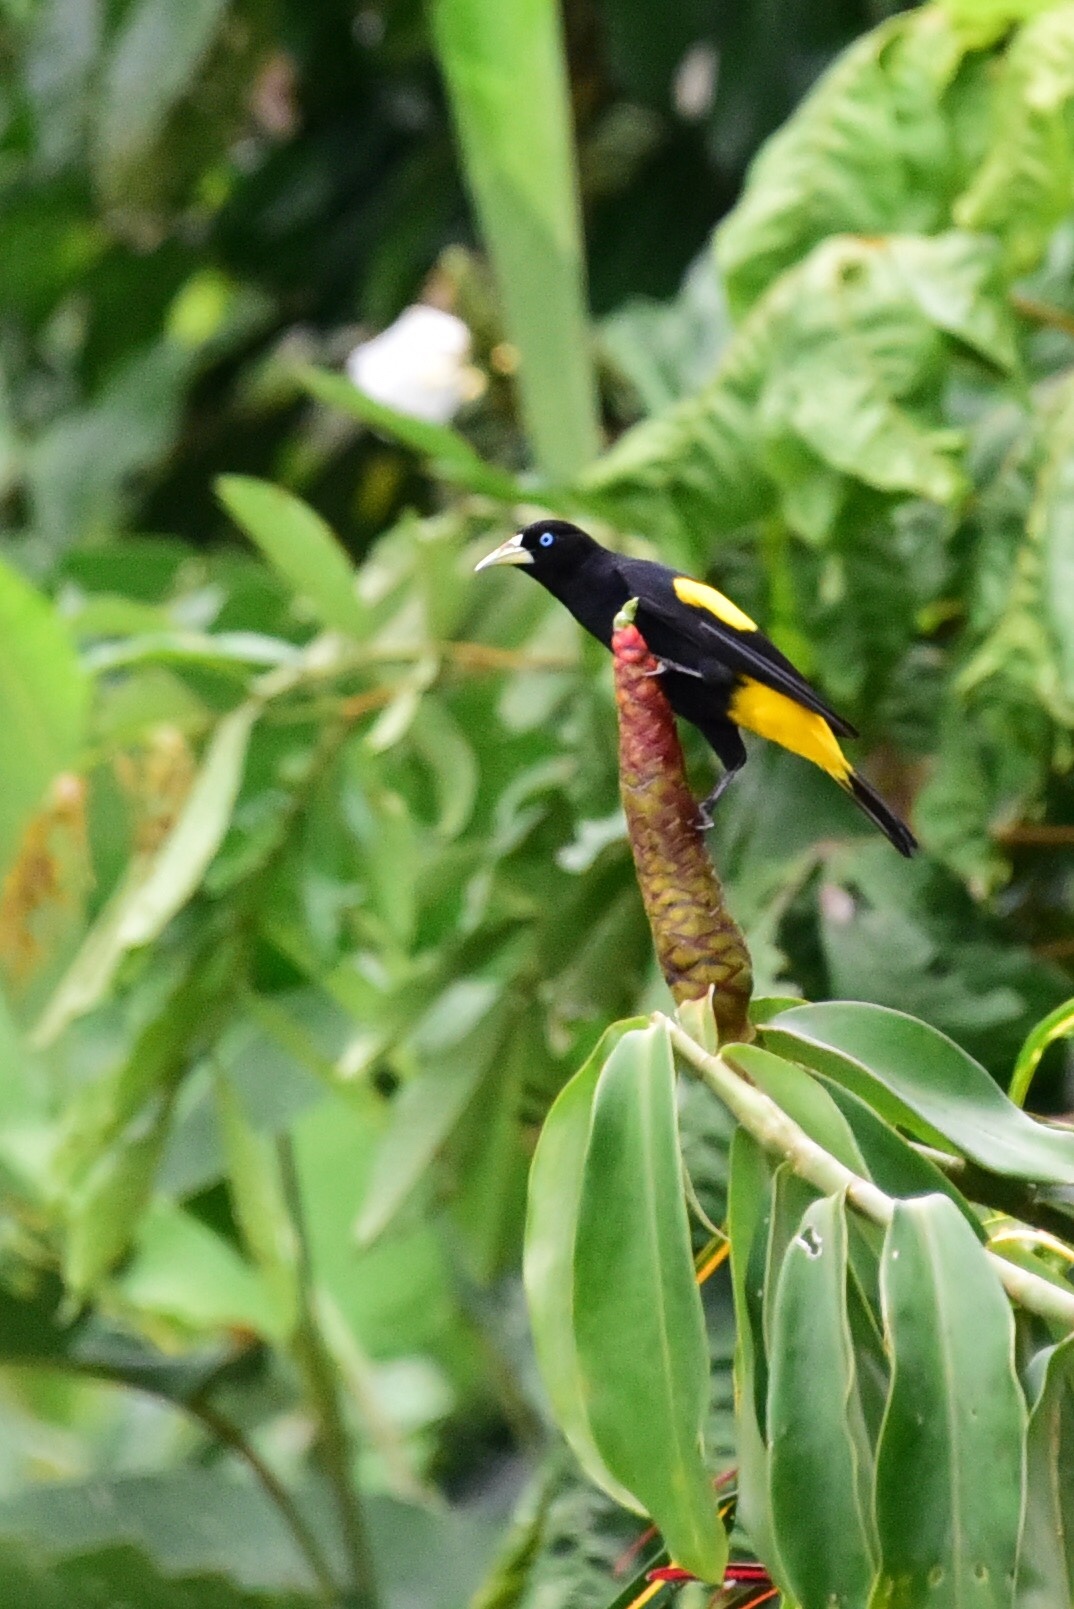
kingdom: Animalia
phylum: Chordata
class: Aves
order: Passeriformes
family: Icteridae
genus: Cacicus
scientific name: Cacicus cela
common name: Yellow-rumped cacique
